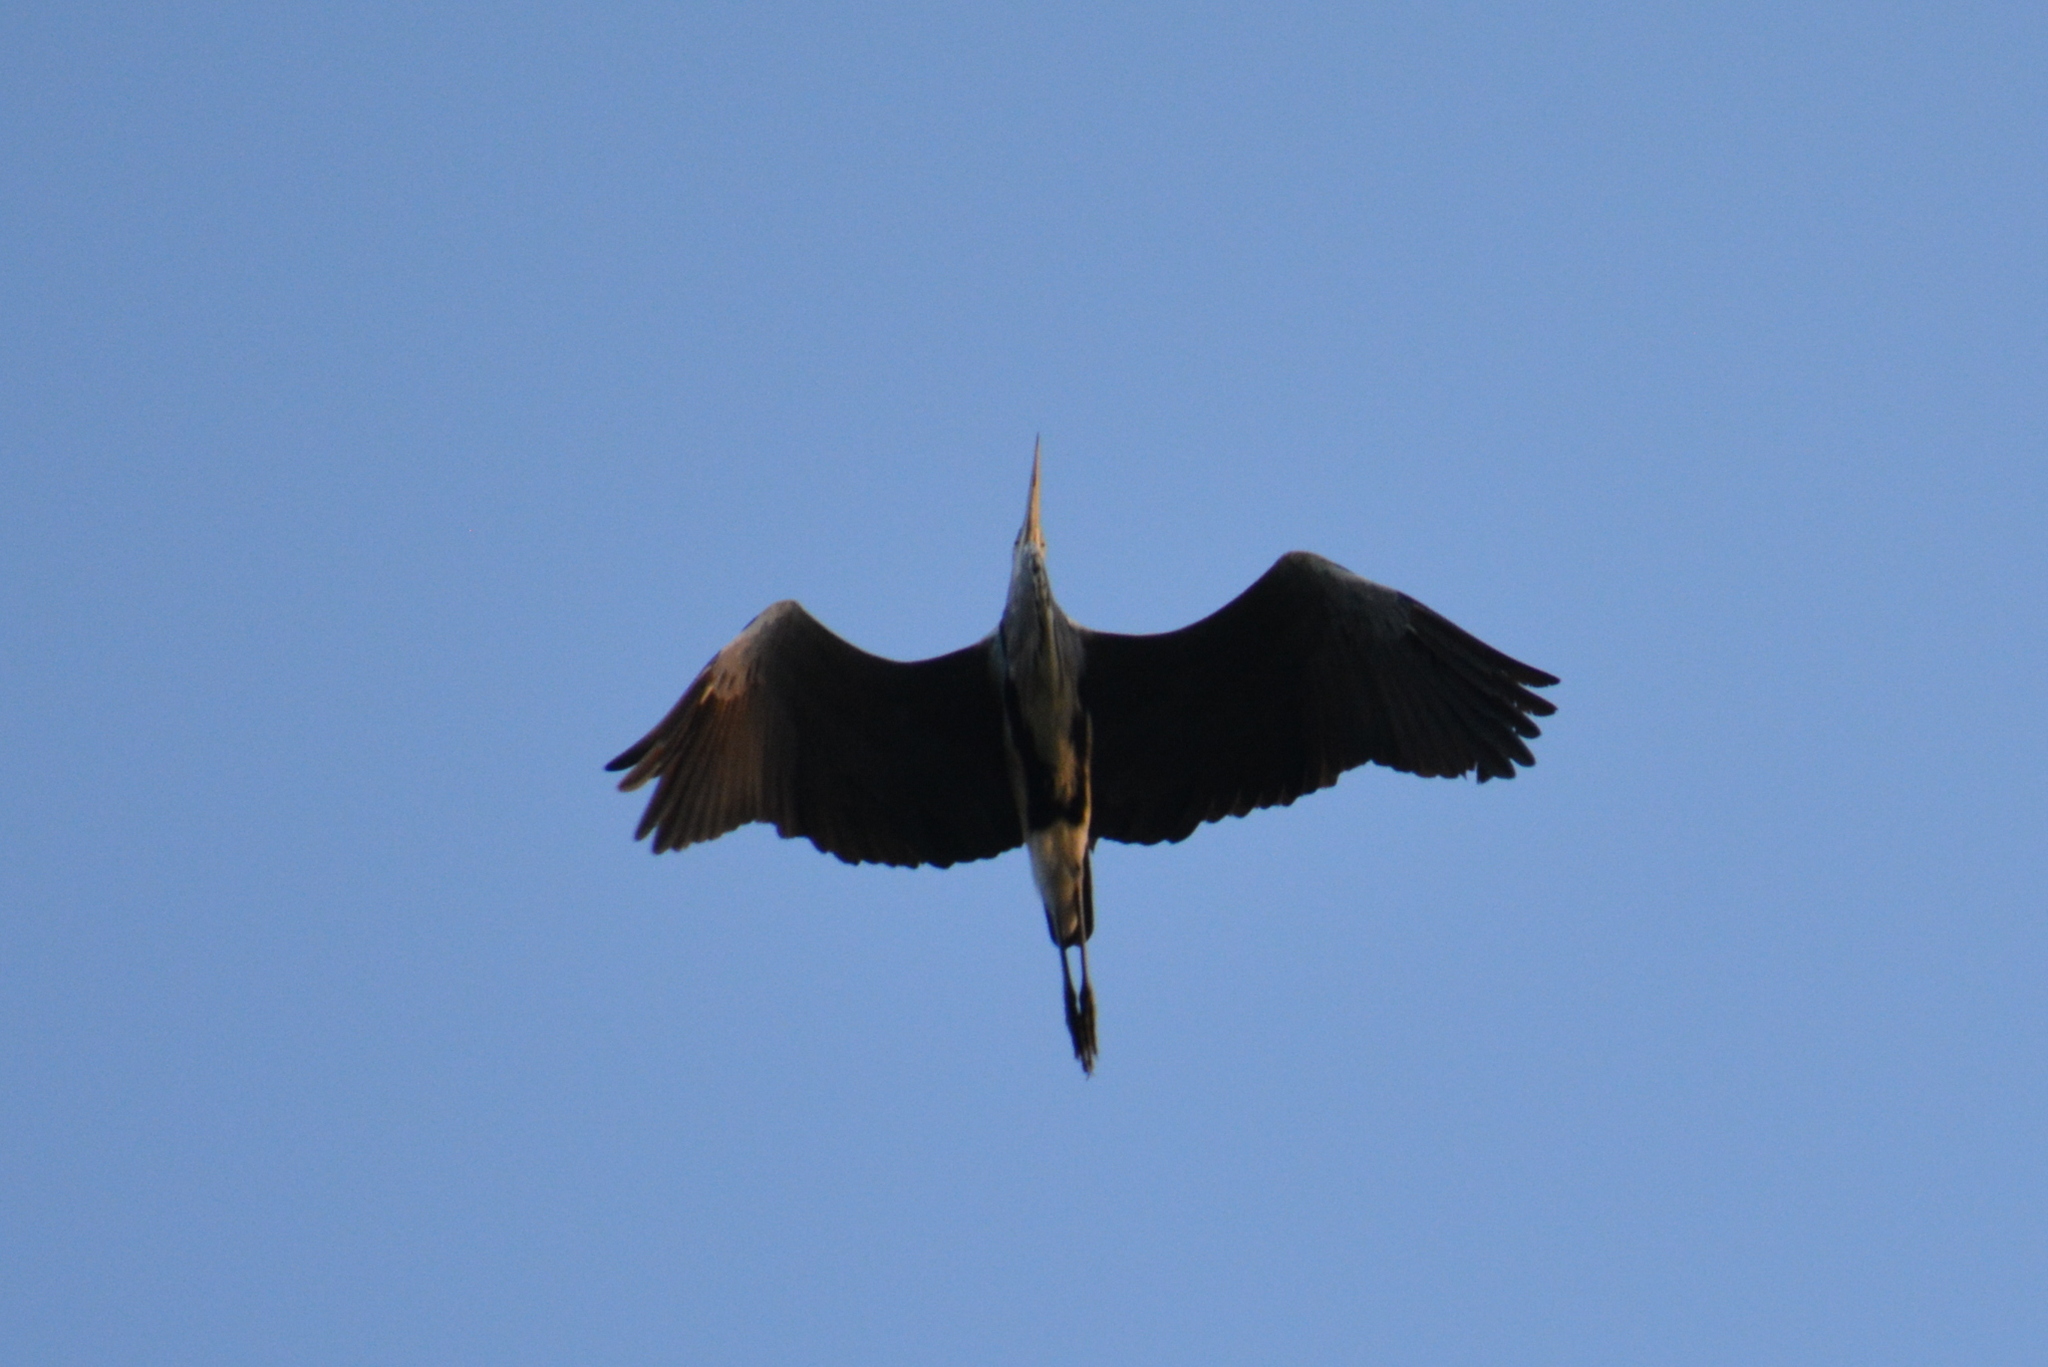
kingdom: Animalia
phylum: Chordata
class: Aves
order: Pelecaniformes
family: Ardeidae
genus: Ardea
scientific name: Ardea cinerea
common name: Grey heron
